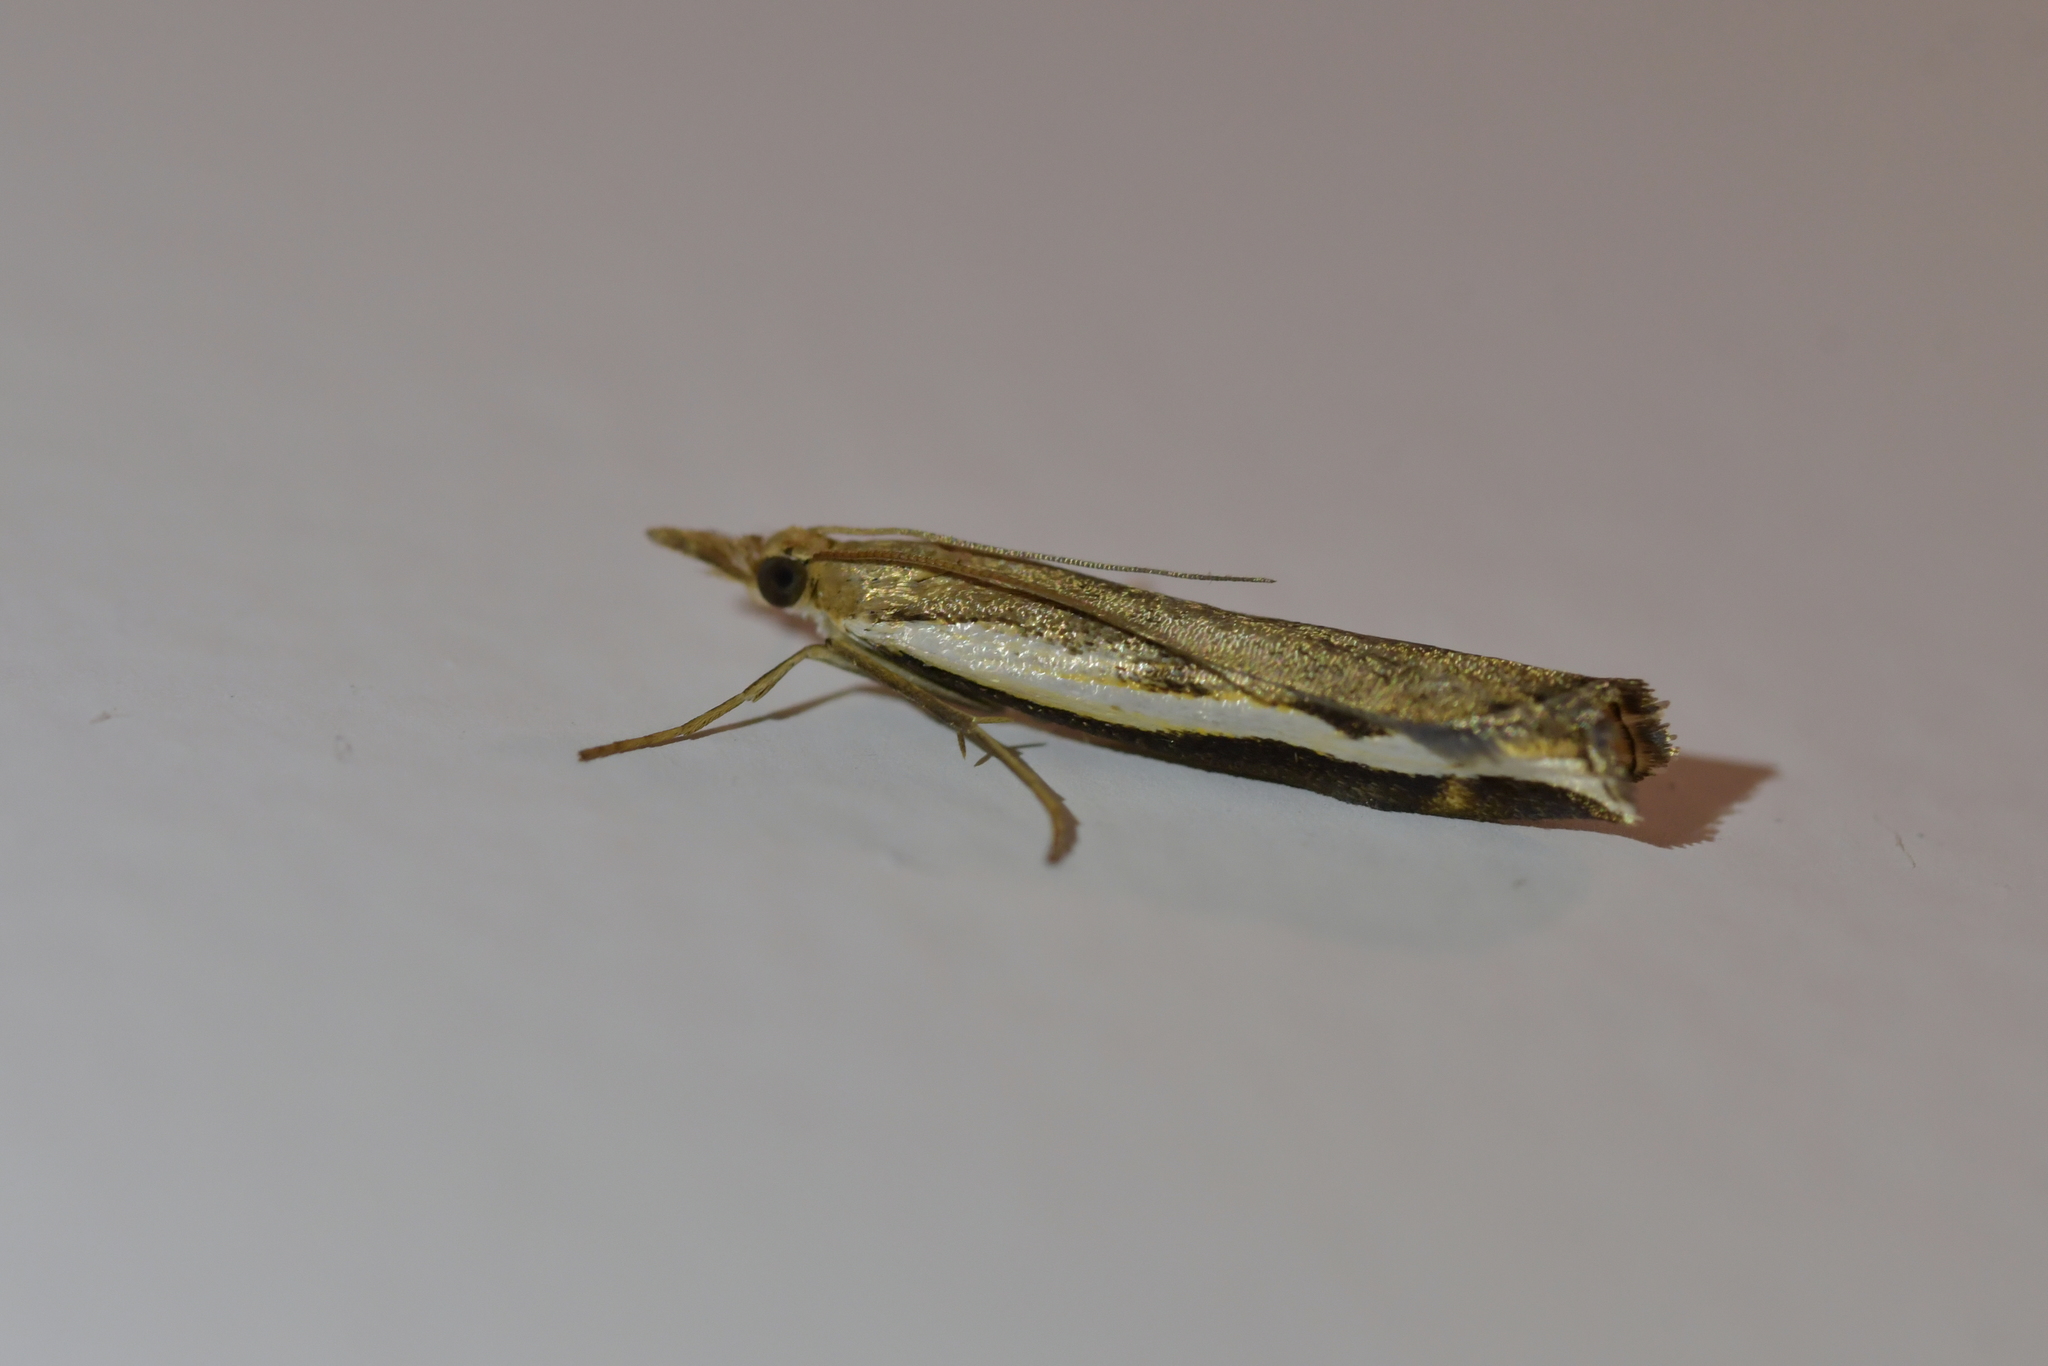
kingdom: Animalia
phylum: Arthropoda
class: Insecta
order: Lepidoptera
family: Crambidae
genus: Orocrambus
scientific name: Orocrambus flexuosellus
